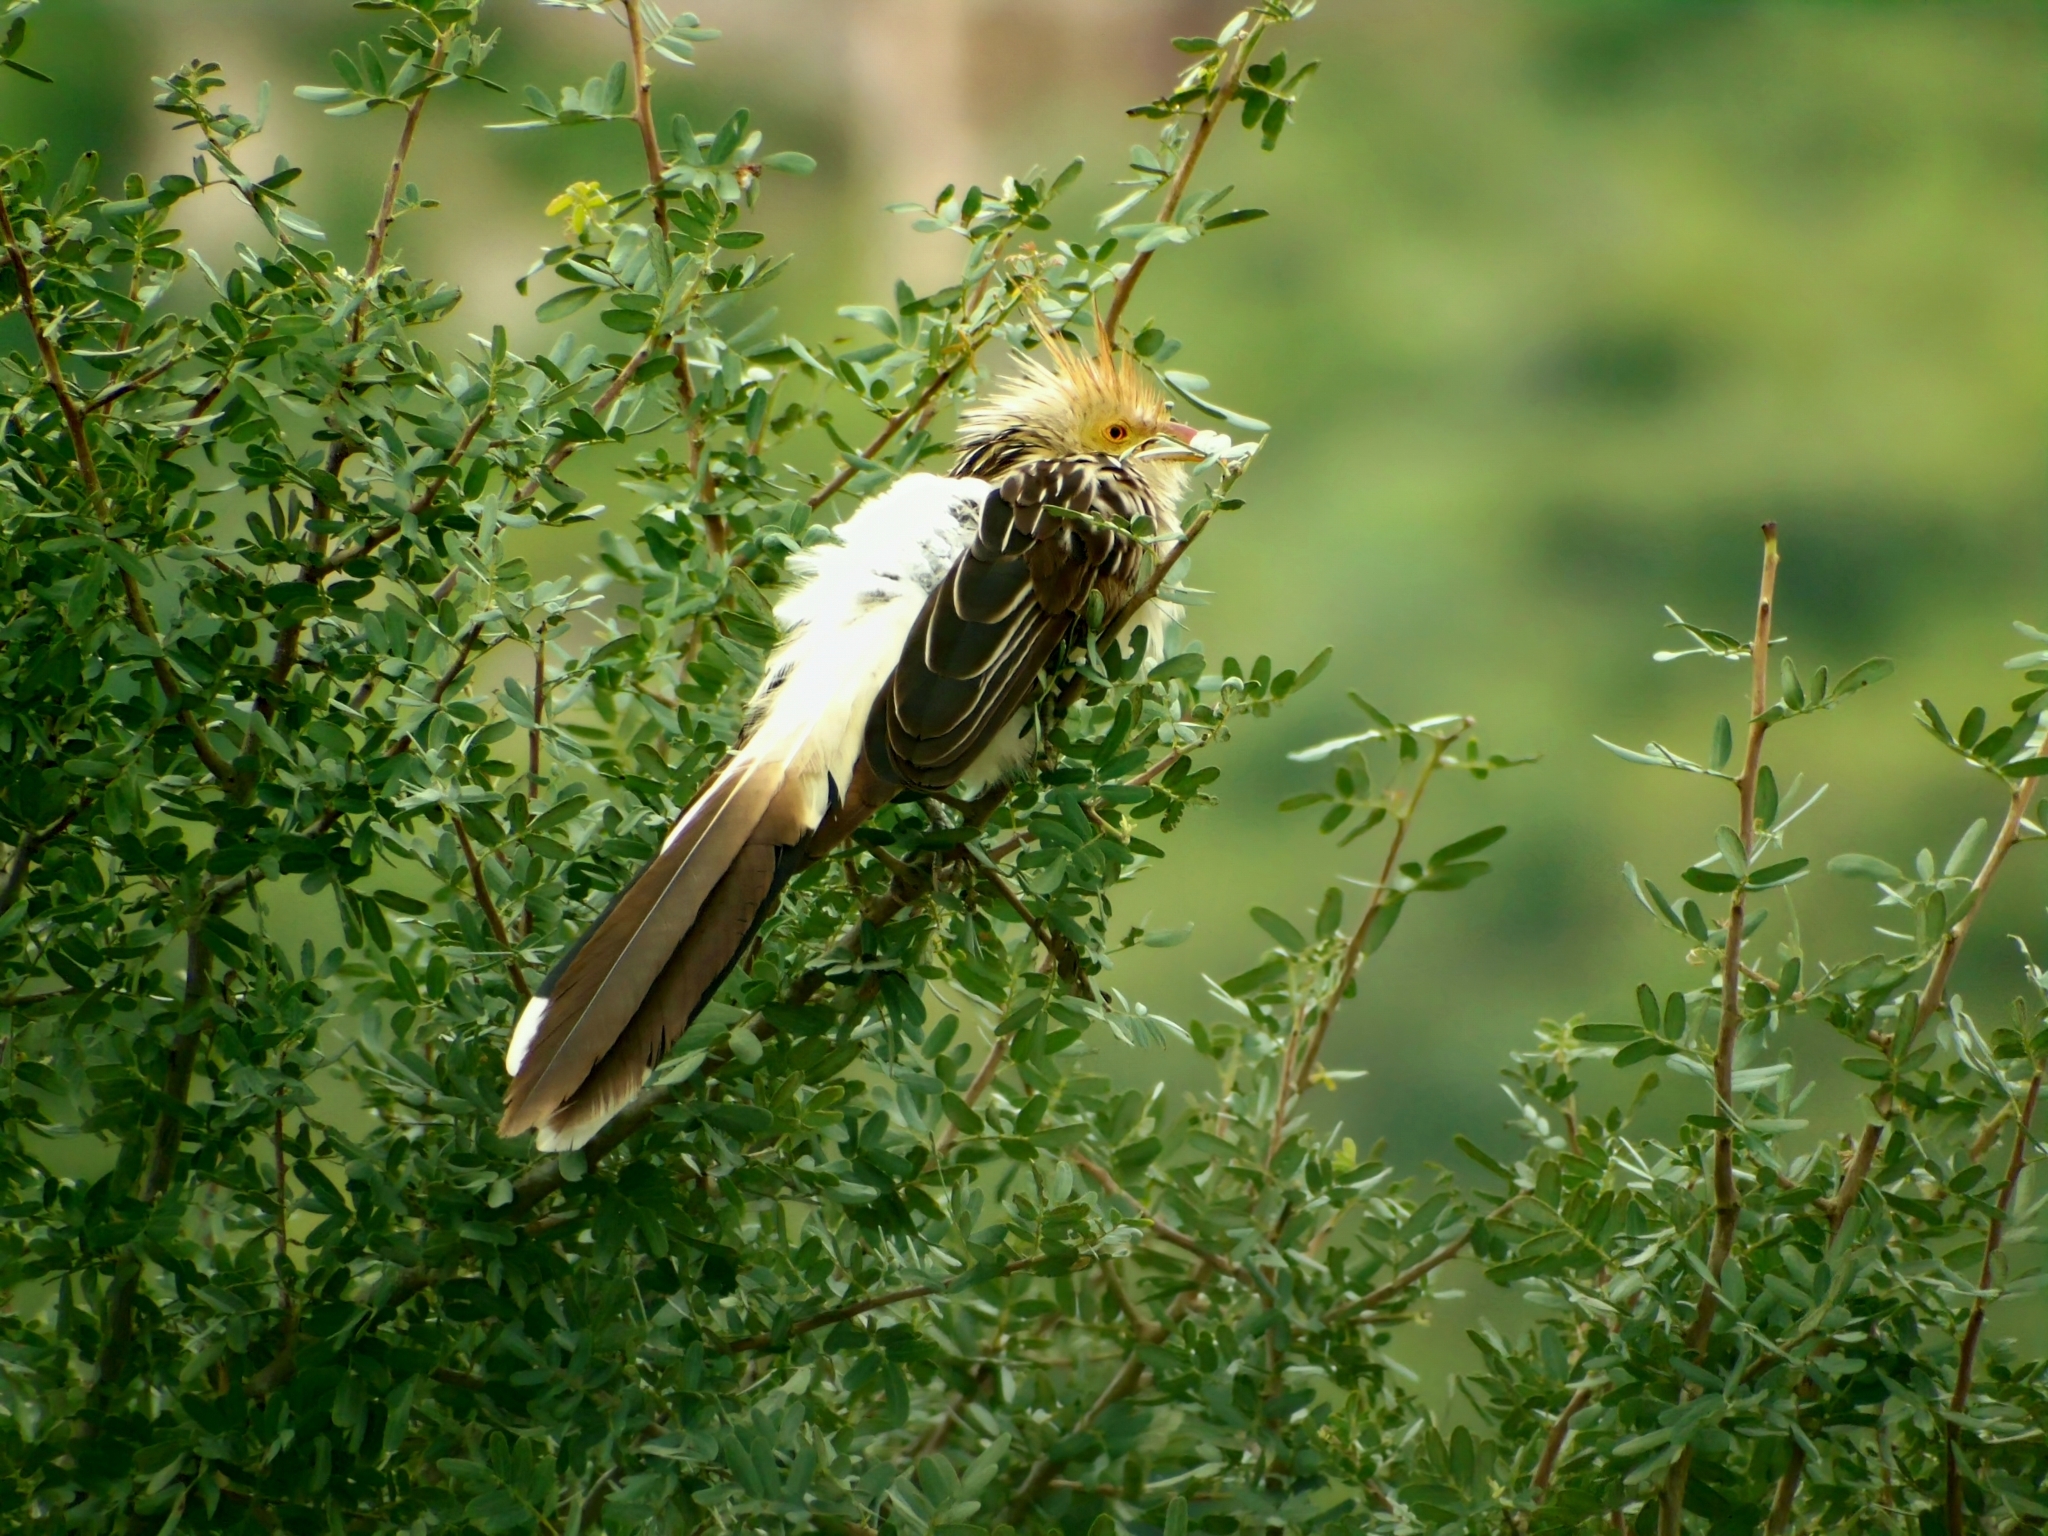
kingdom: Animalia
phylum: Chordata
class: Aves
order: Cuculiformes
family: Cuculidae
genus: Guira
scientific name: Guira guira
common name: Guira cuckoo
